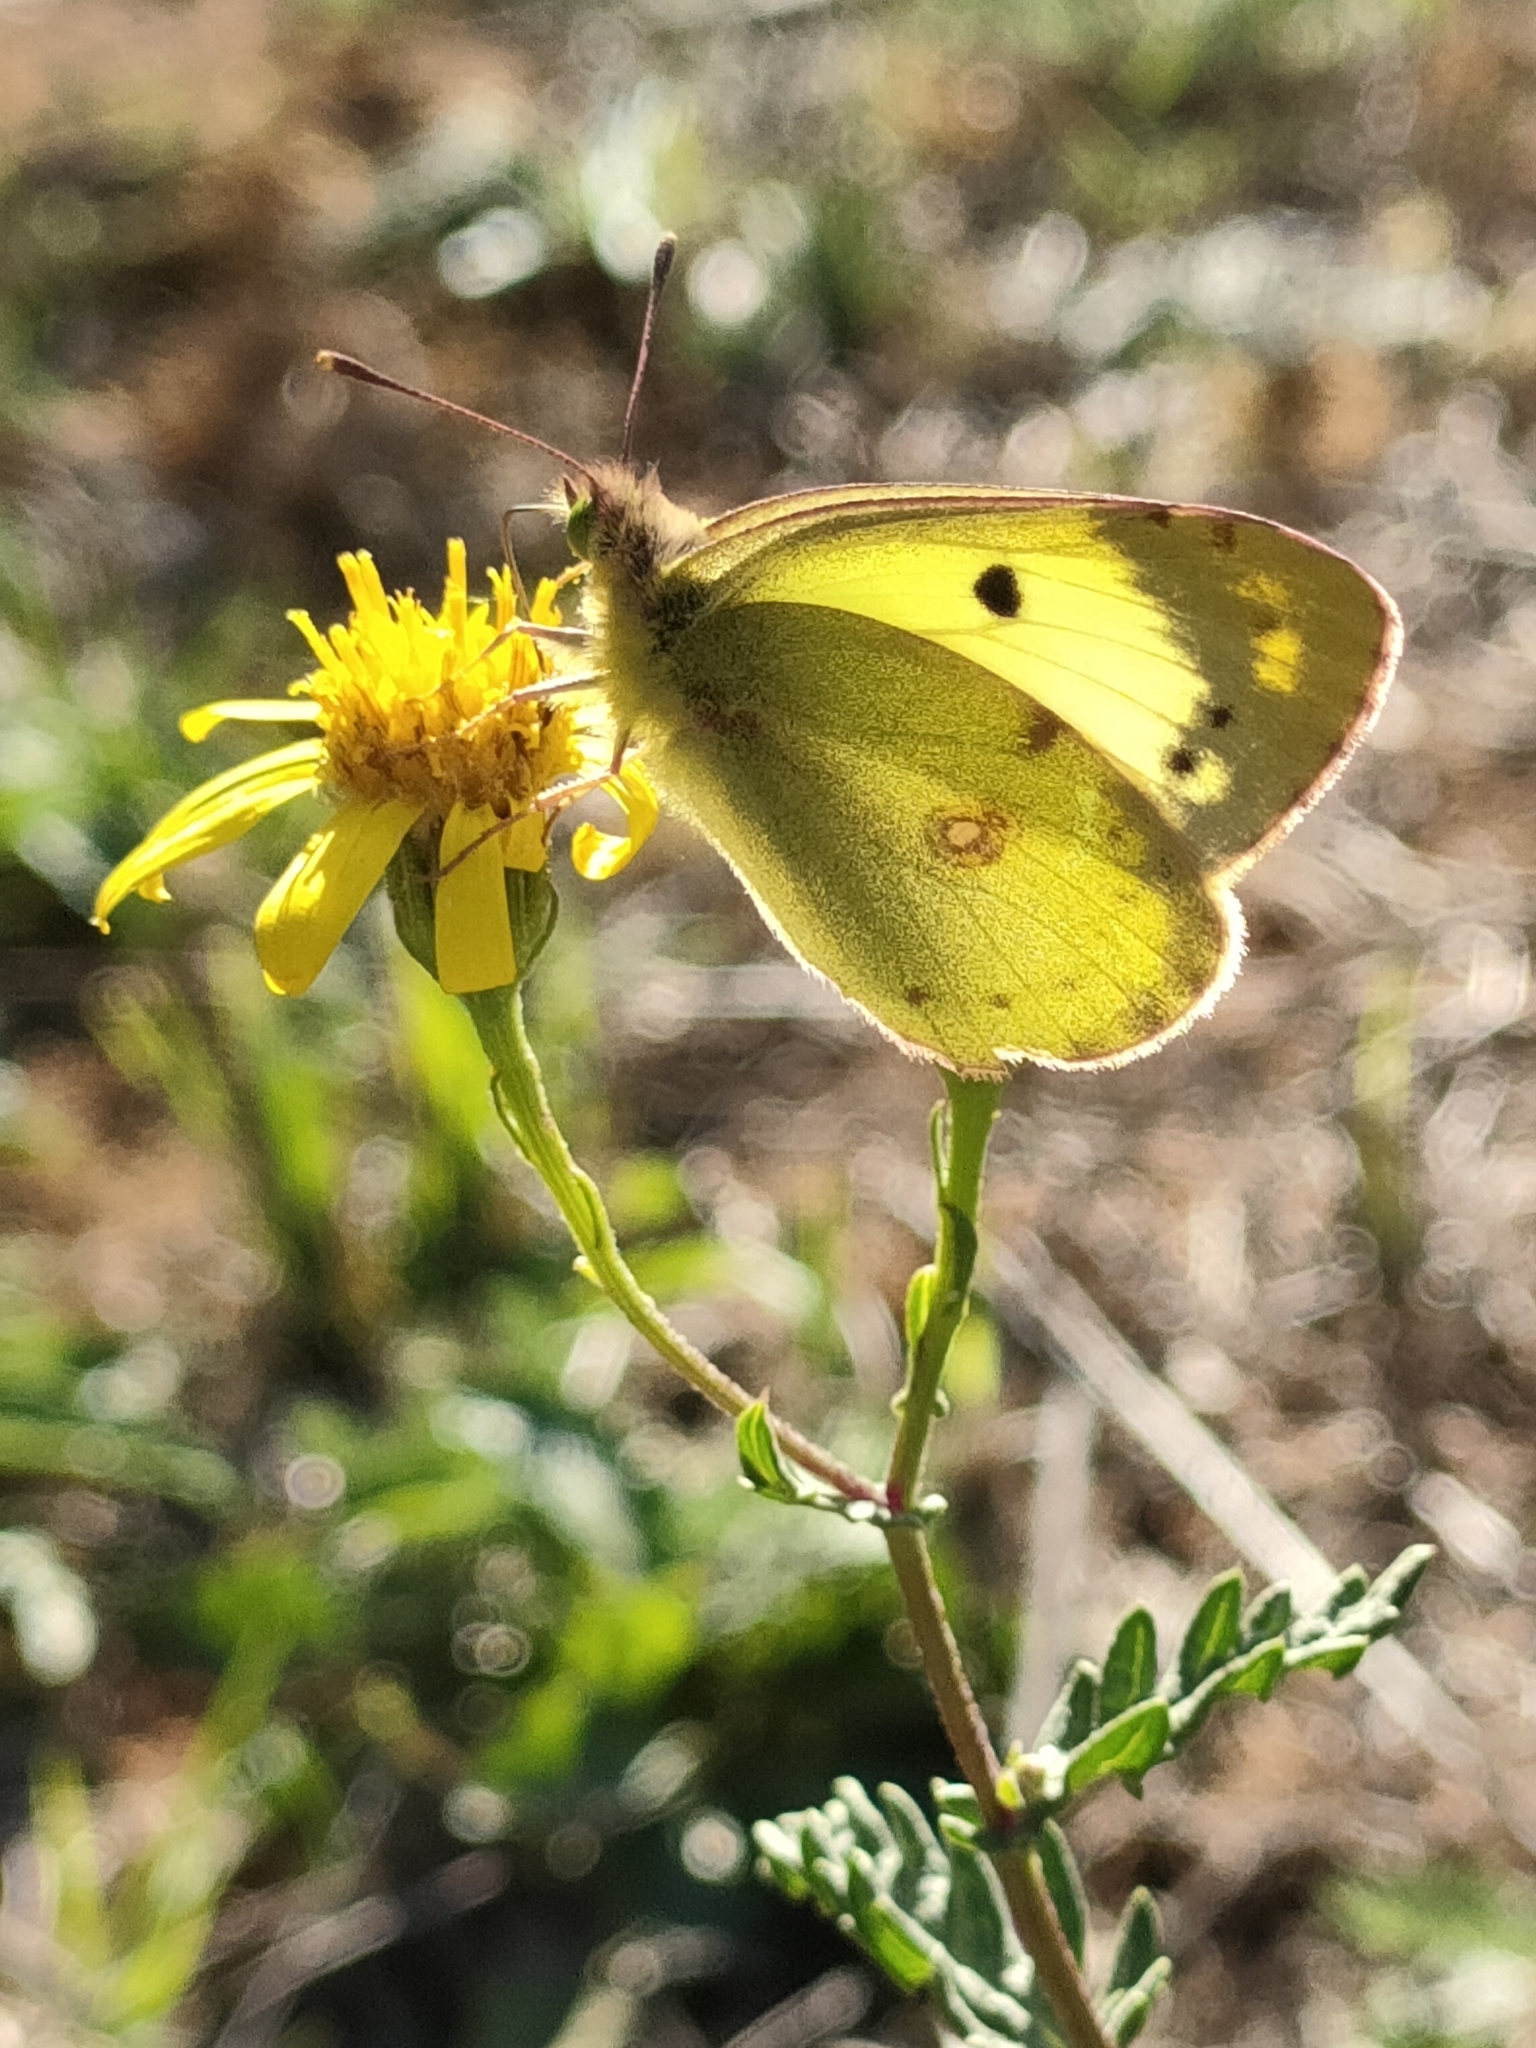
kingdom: Animalia
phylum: Arthropoda
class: Insecta
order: Lepidoptera
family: Pieridae
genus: Colias
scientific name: Colias alfacariensis
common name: Berger's clouded yellow
